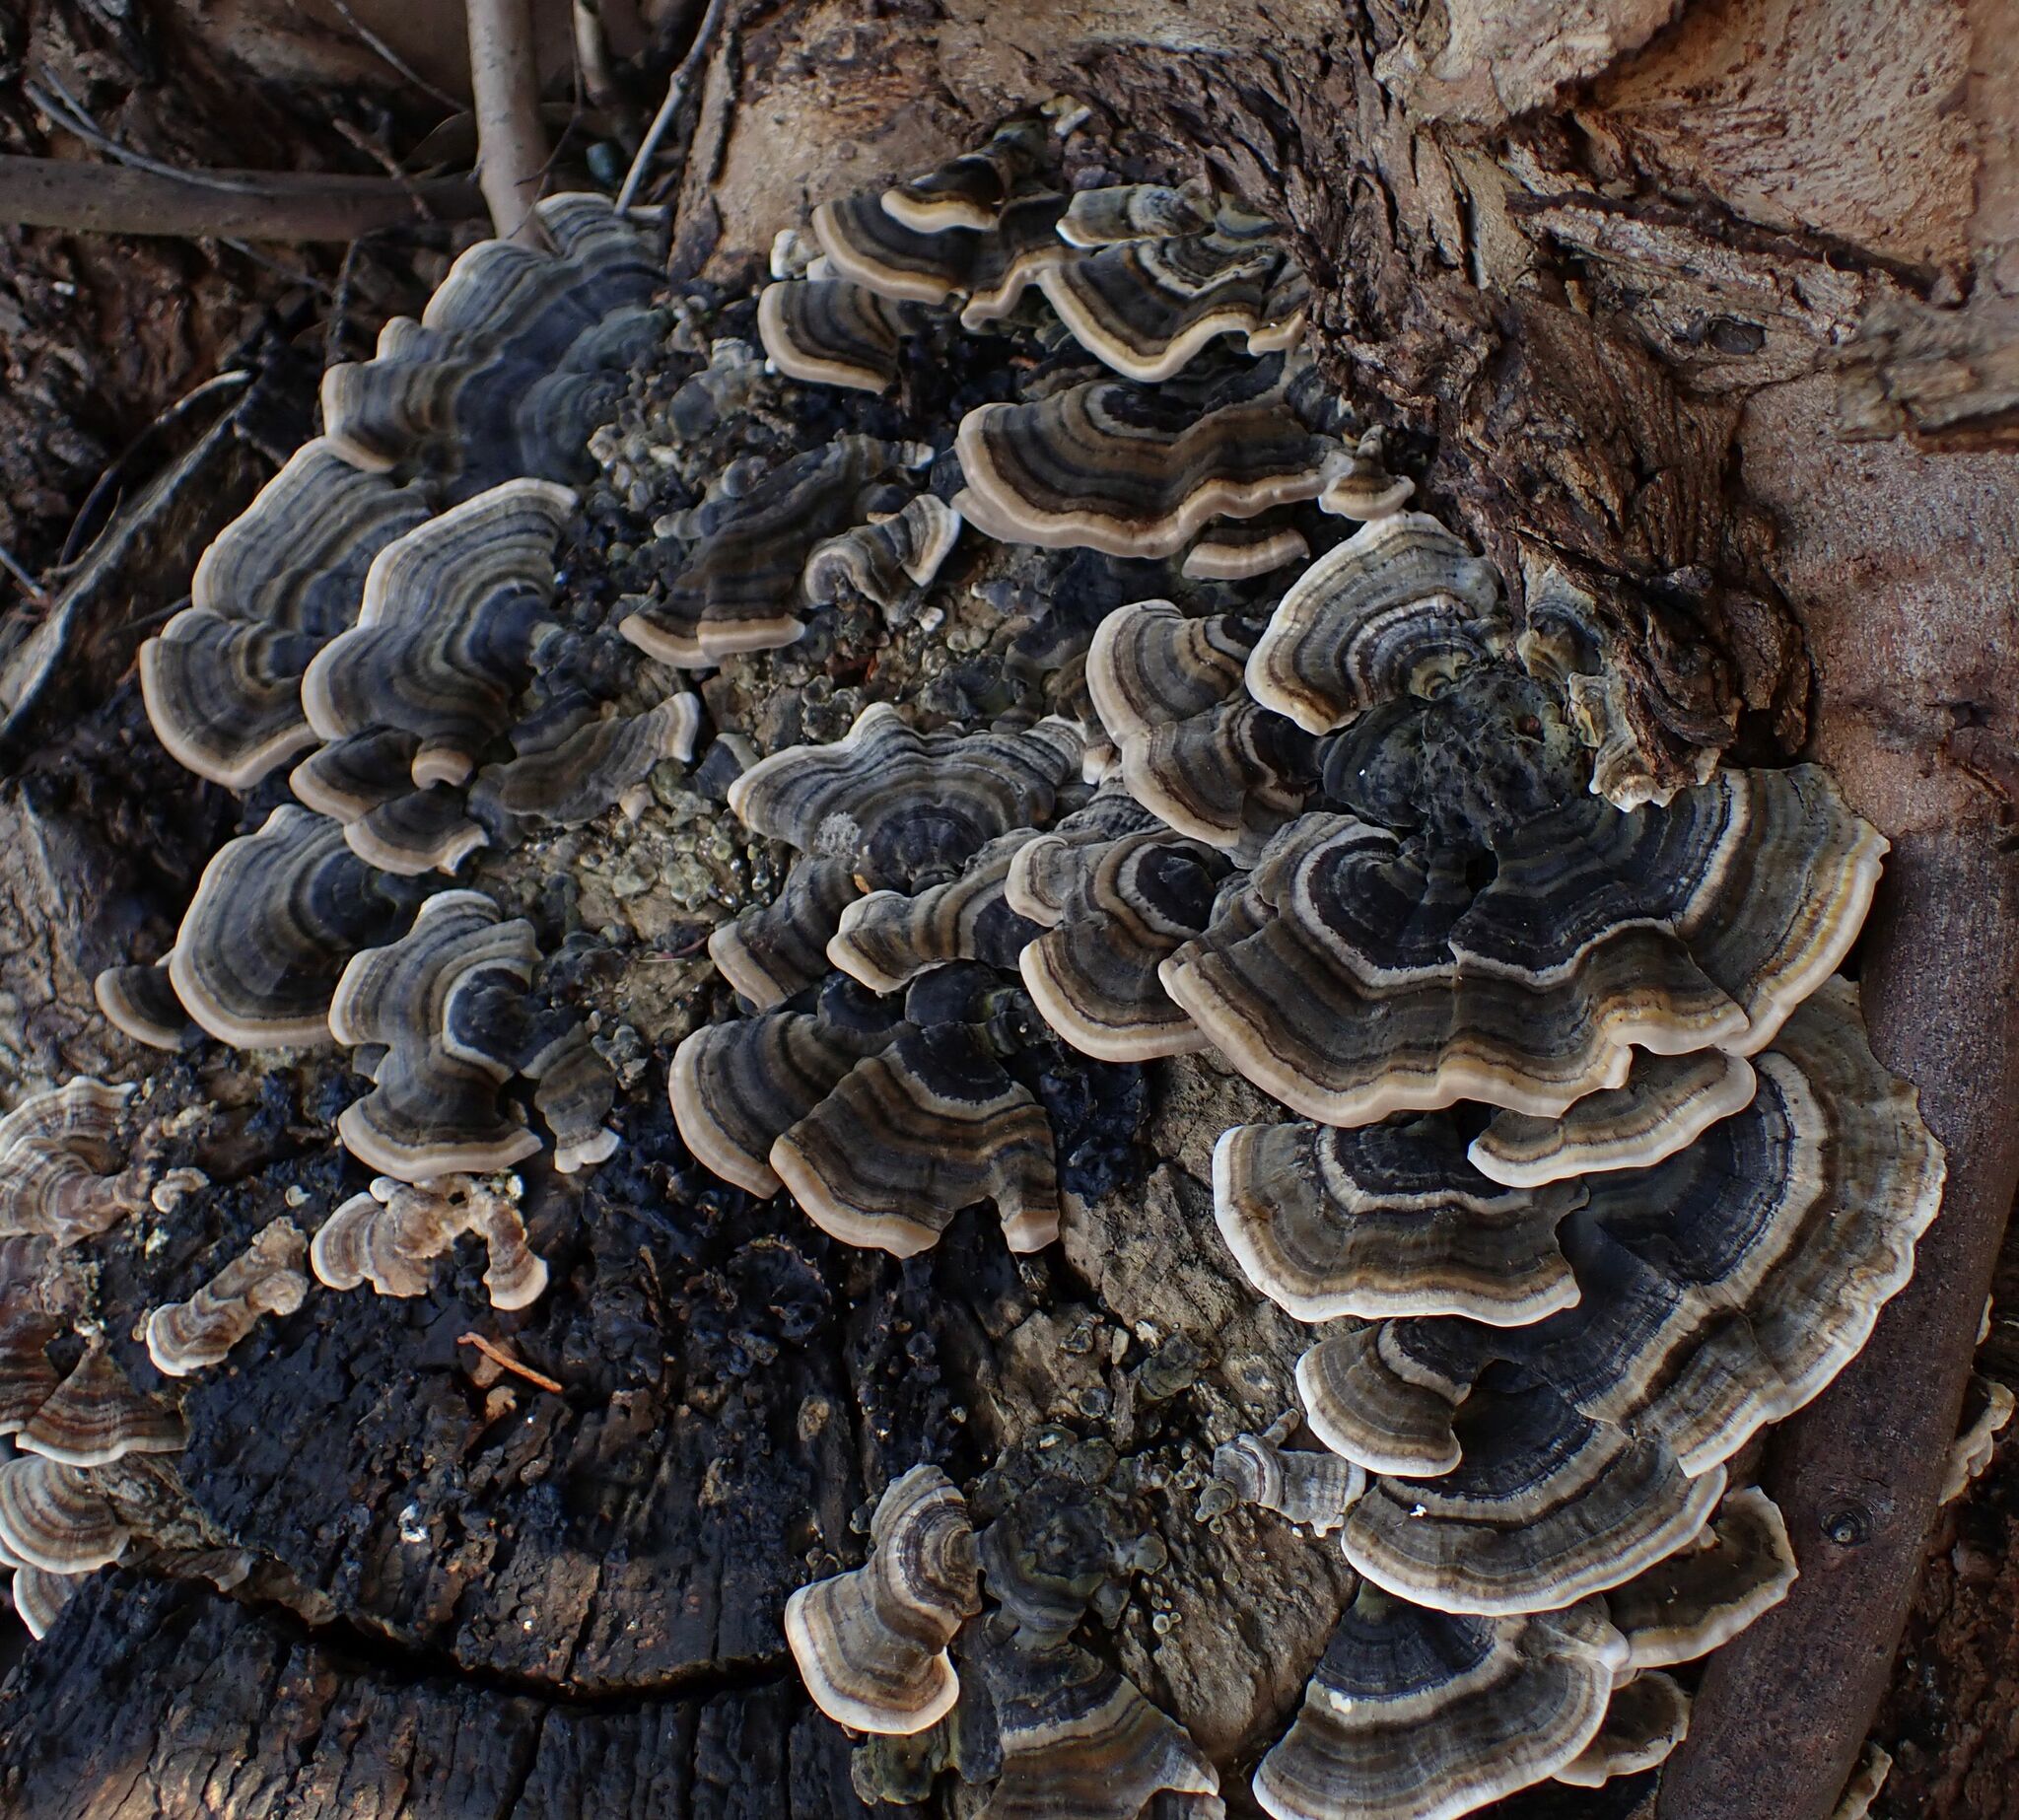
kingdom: Fungi
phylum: Basidiomycota
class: Agaricomycetes
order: Polyporales
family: Polyporaceae
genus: Trametes
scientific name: Trametes versicolor
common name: Turkeytail
